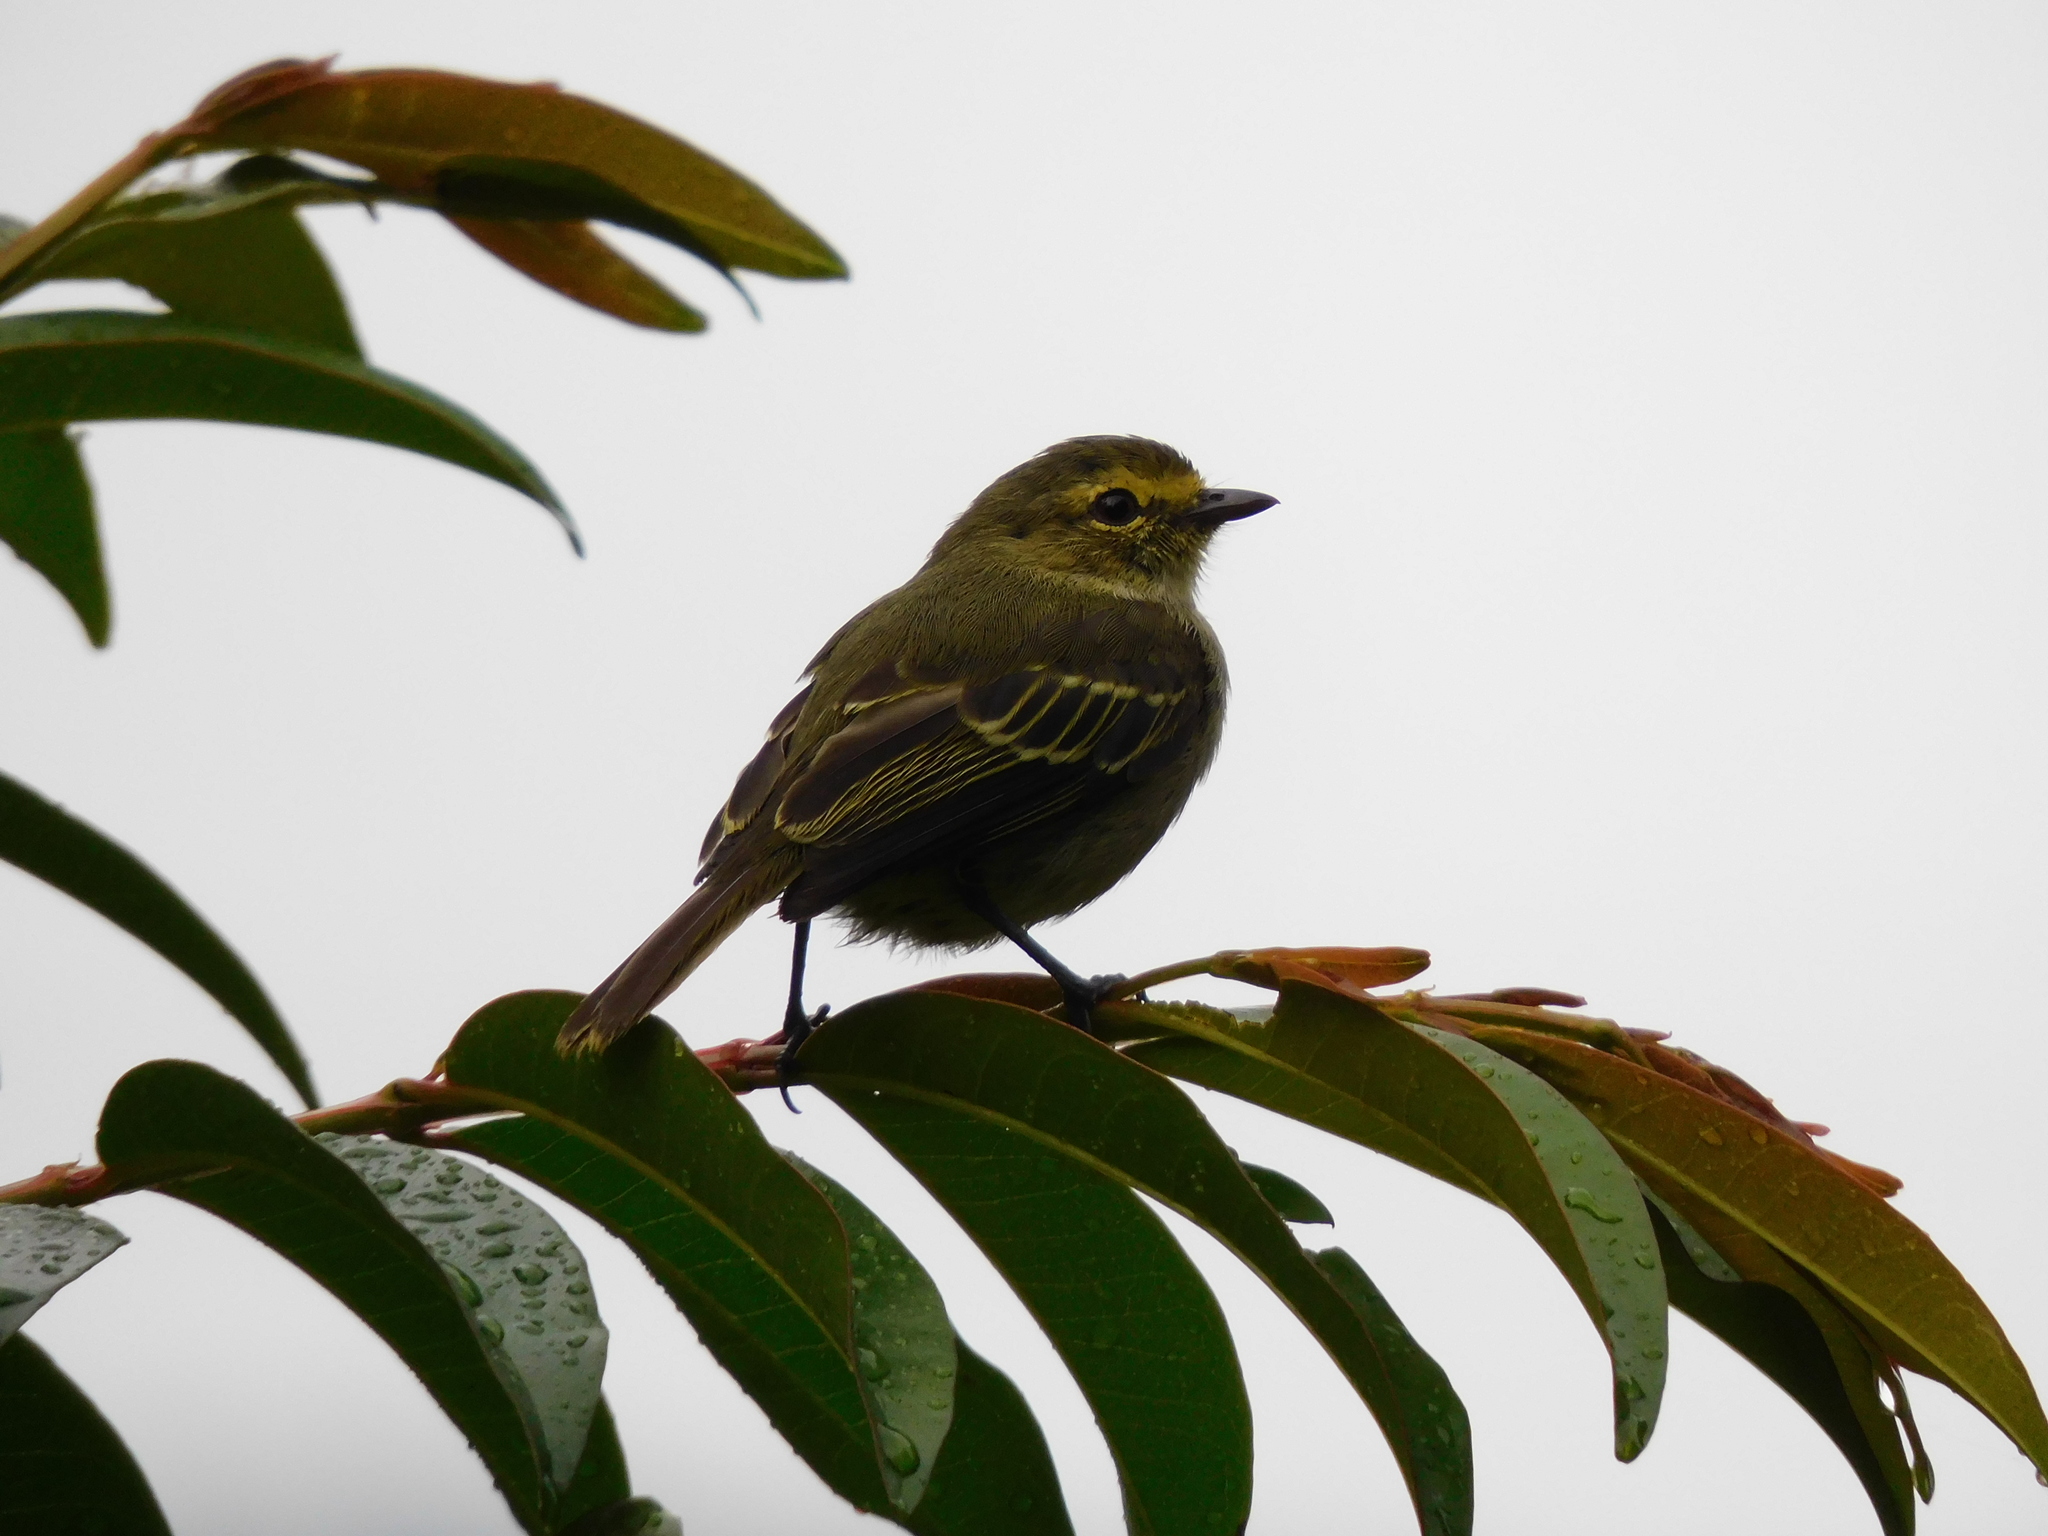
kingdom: Animalia
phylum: Chordata
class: Aves
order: Passeriformes
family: Tyrannidae
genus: Zimmerius
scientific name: Zimmerius chrysops
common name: Golden-faced tyrannulet
